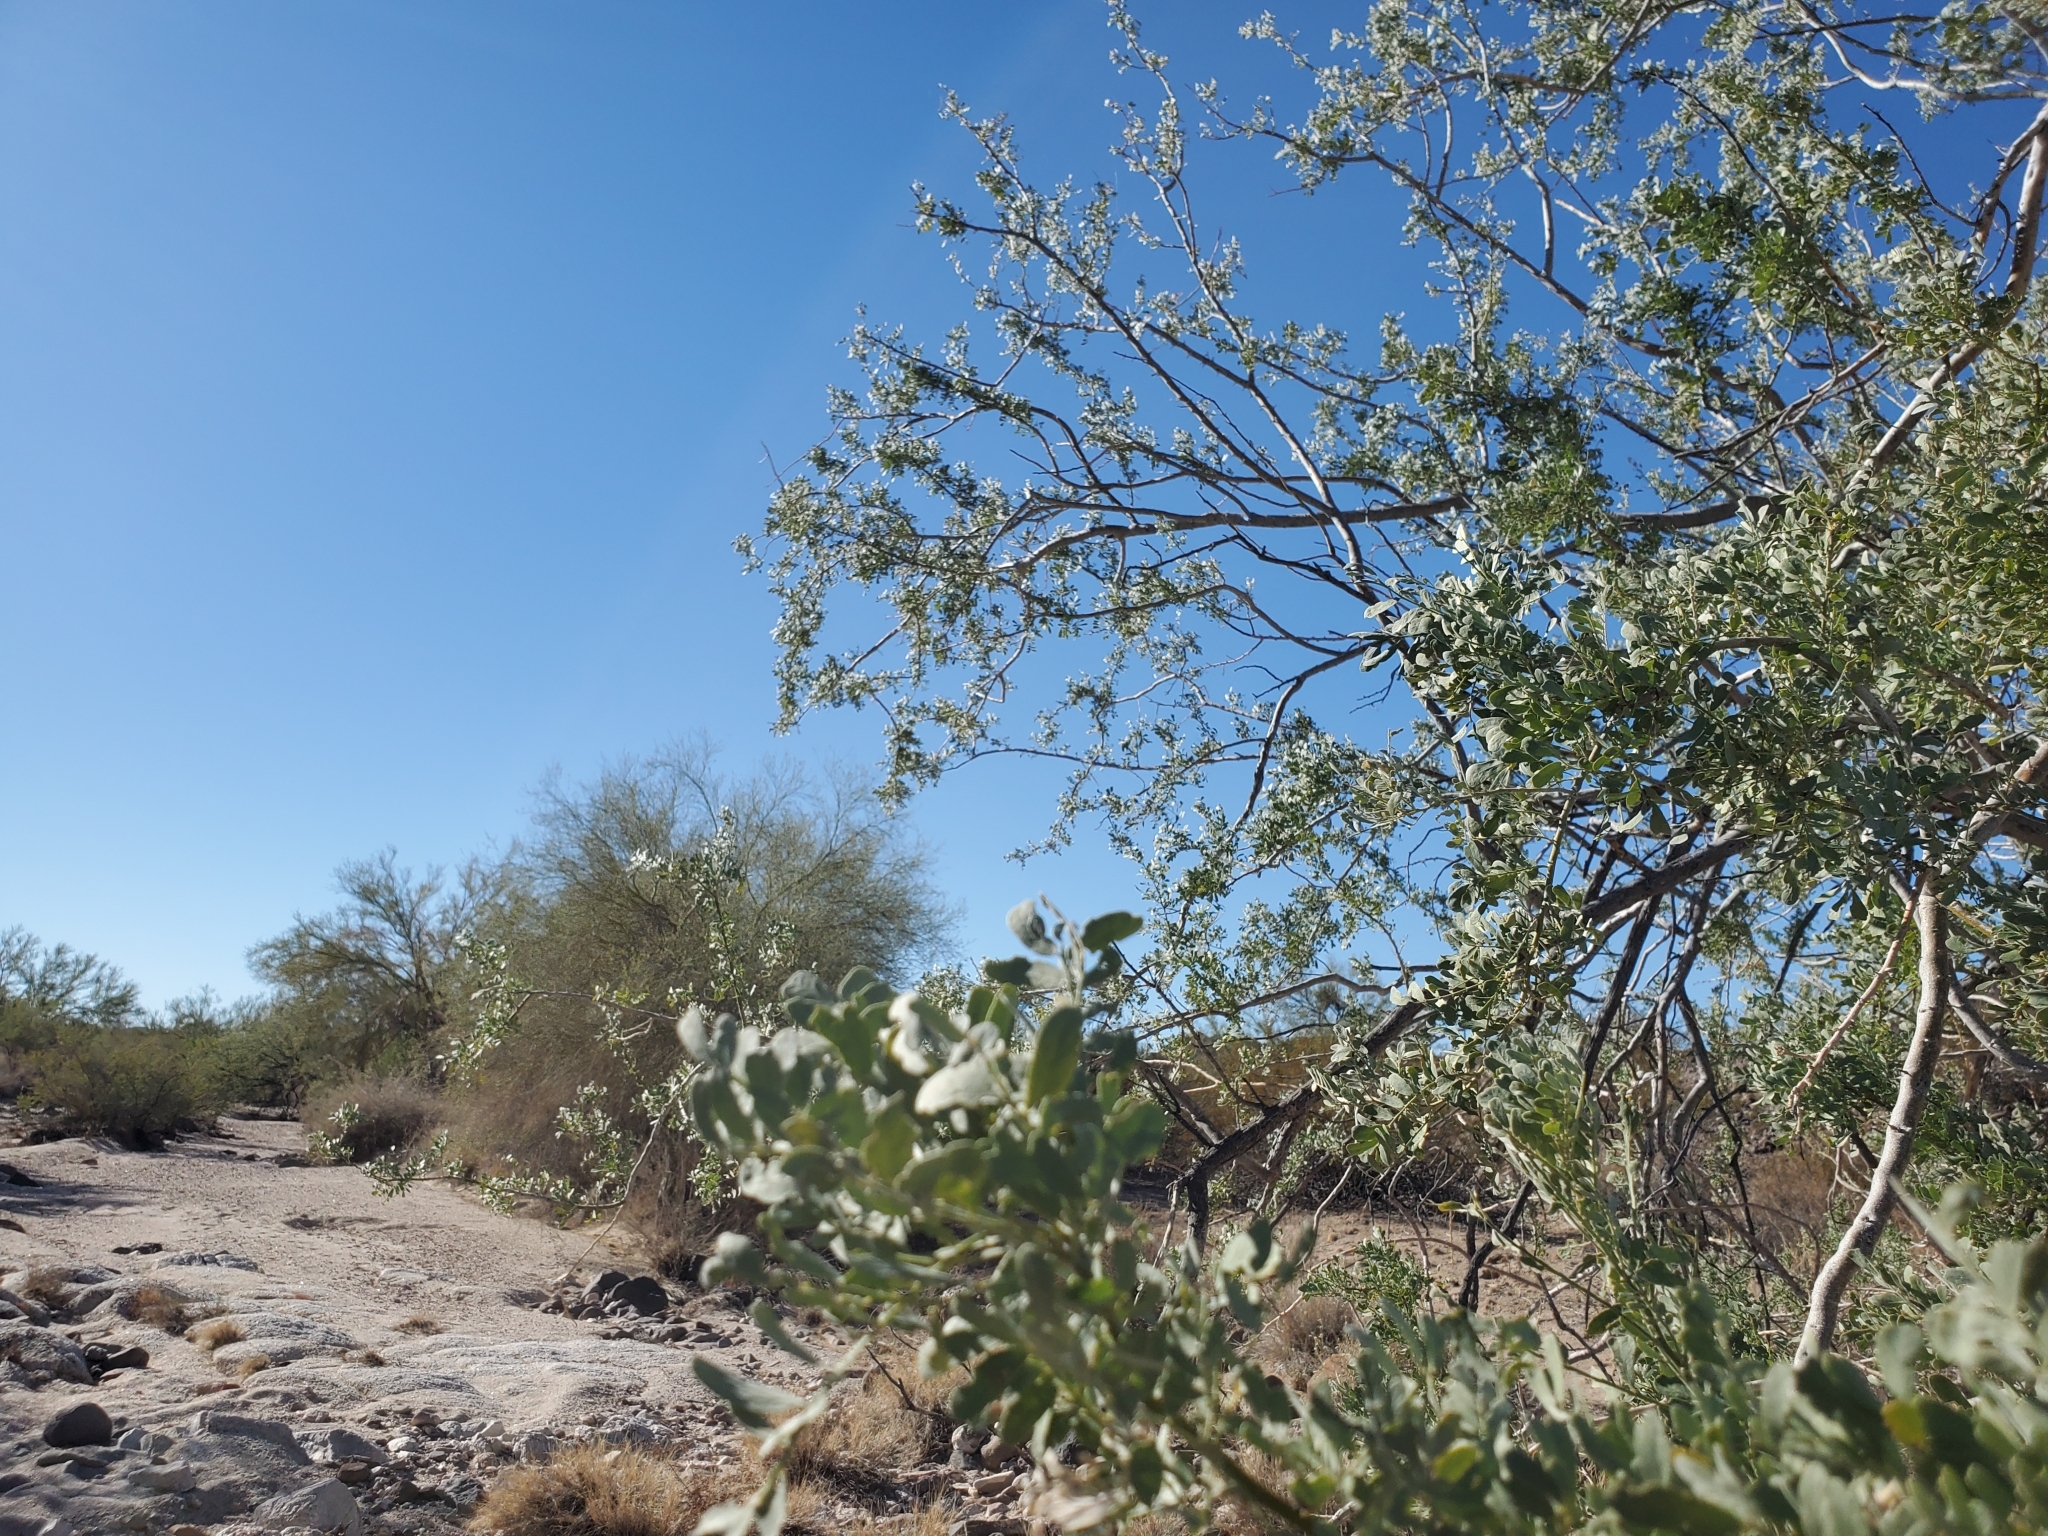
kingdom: Plantae
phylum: Tracheophyta
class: Magnoliopsida
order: Fabales
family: Fabaceae
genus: Olneya
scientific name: Olneya tesota
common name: Desert ironwood
